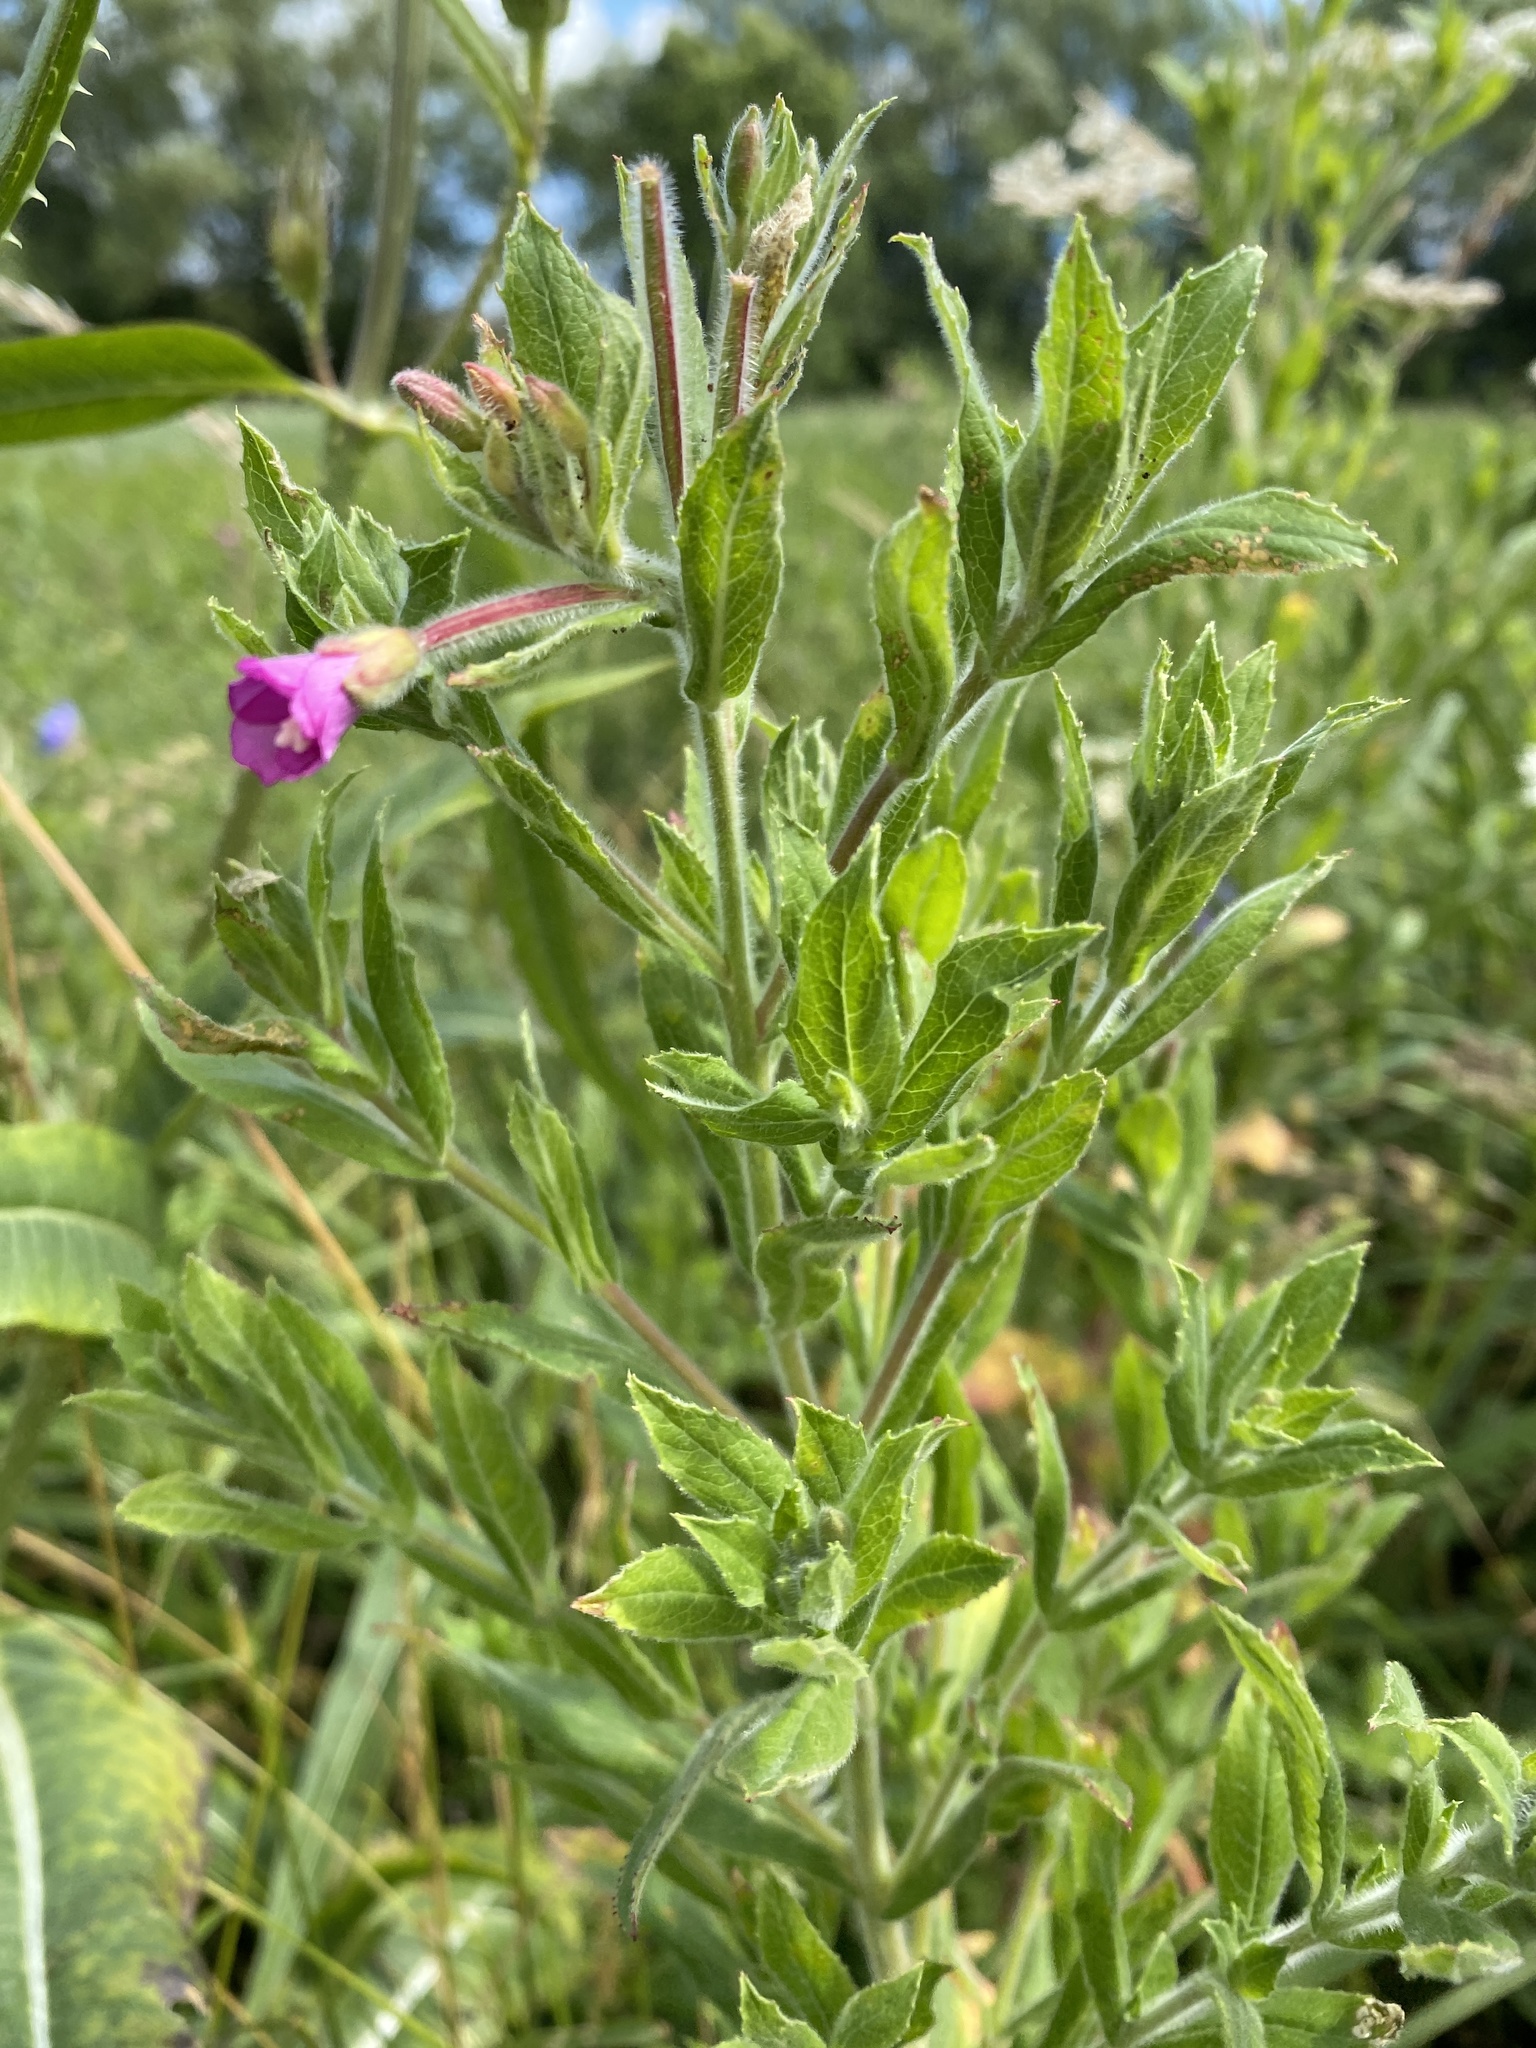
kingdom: Plantae
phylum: Tracheophyta
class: Magnoliopsida
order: Myrtales
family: Onagraceae
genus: Epilobium
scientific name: Epilobium hirsutum
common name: Great willowherb
